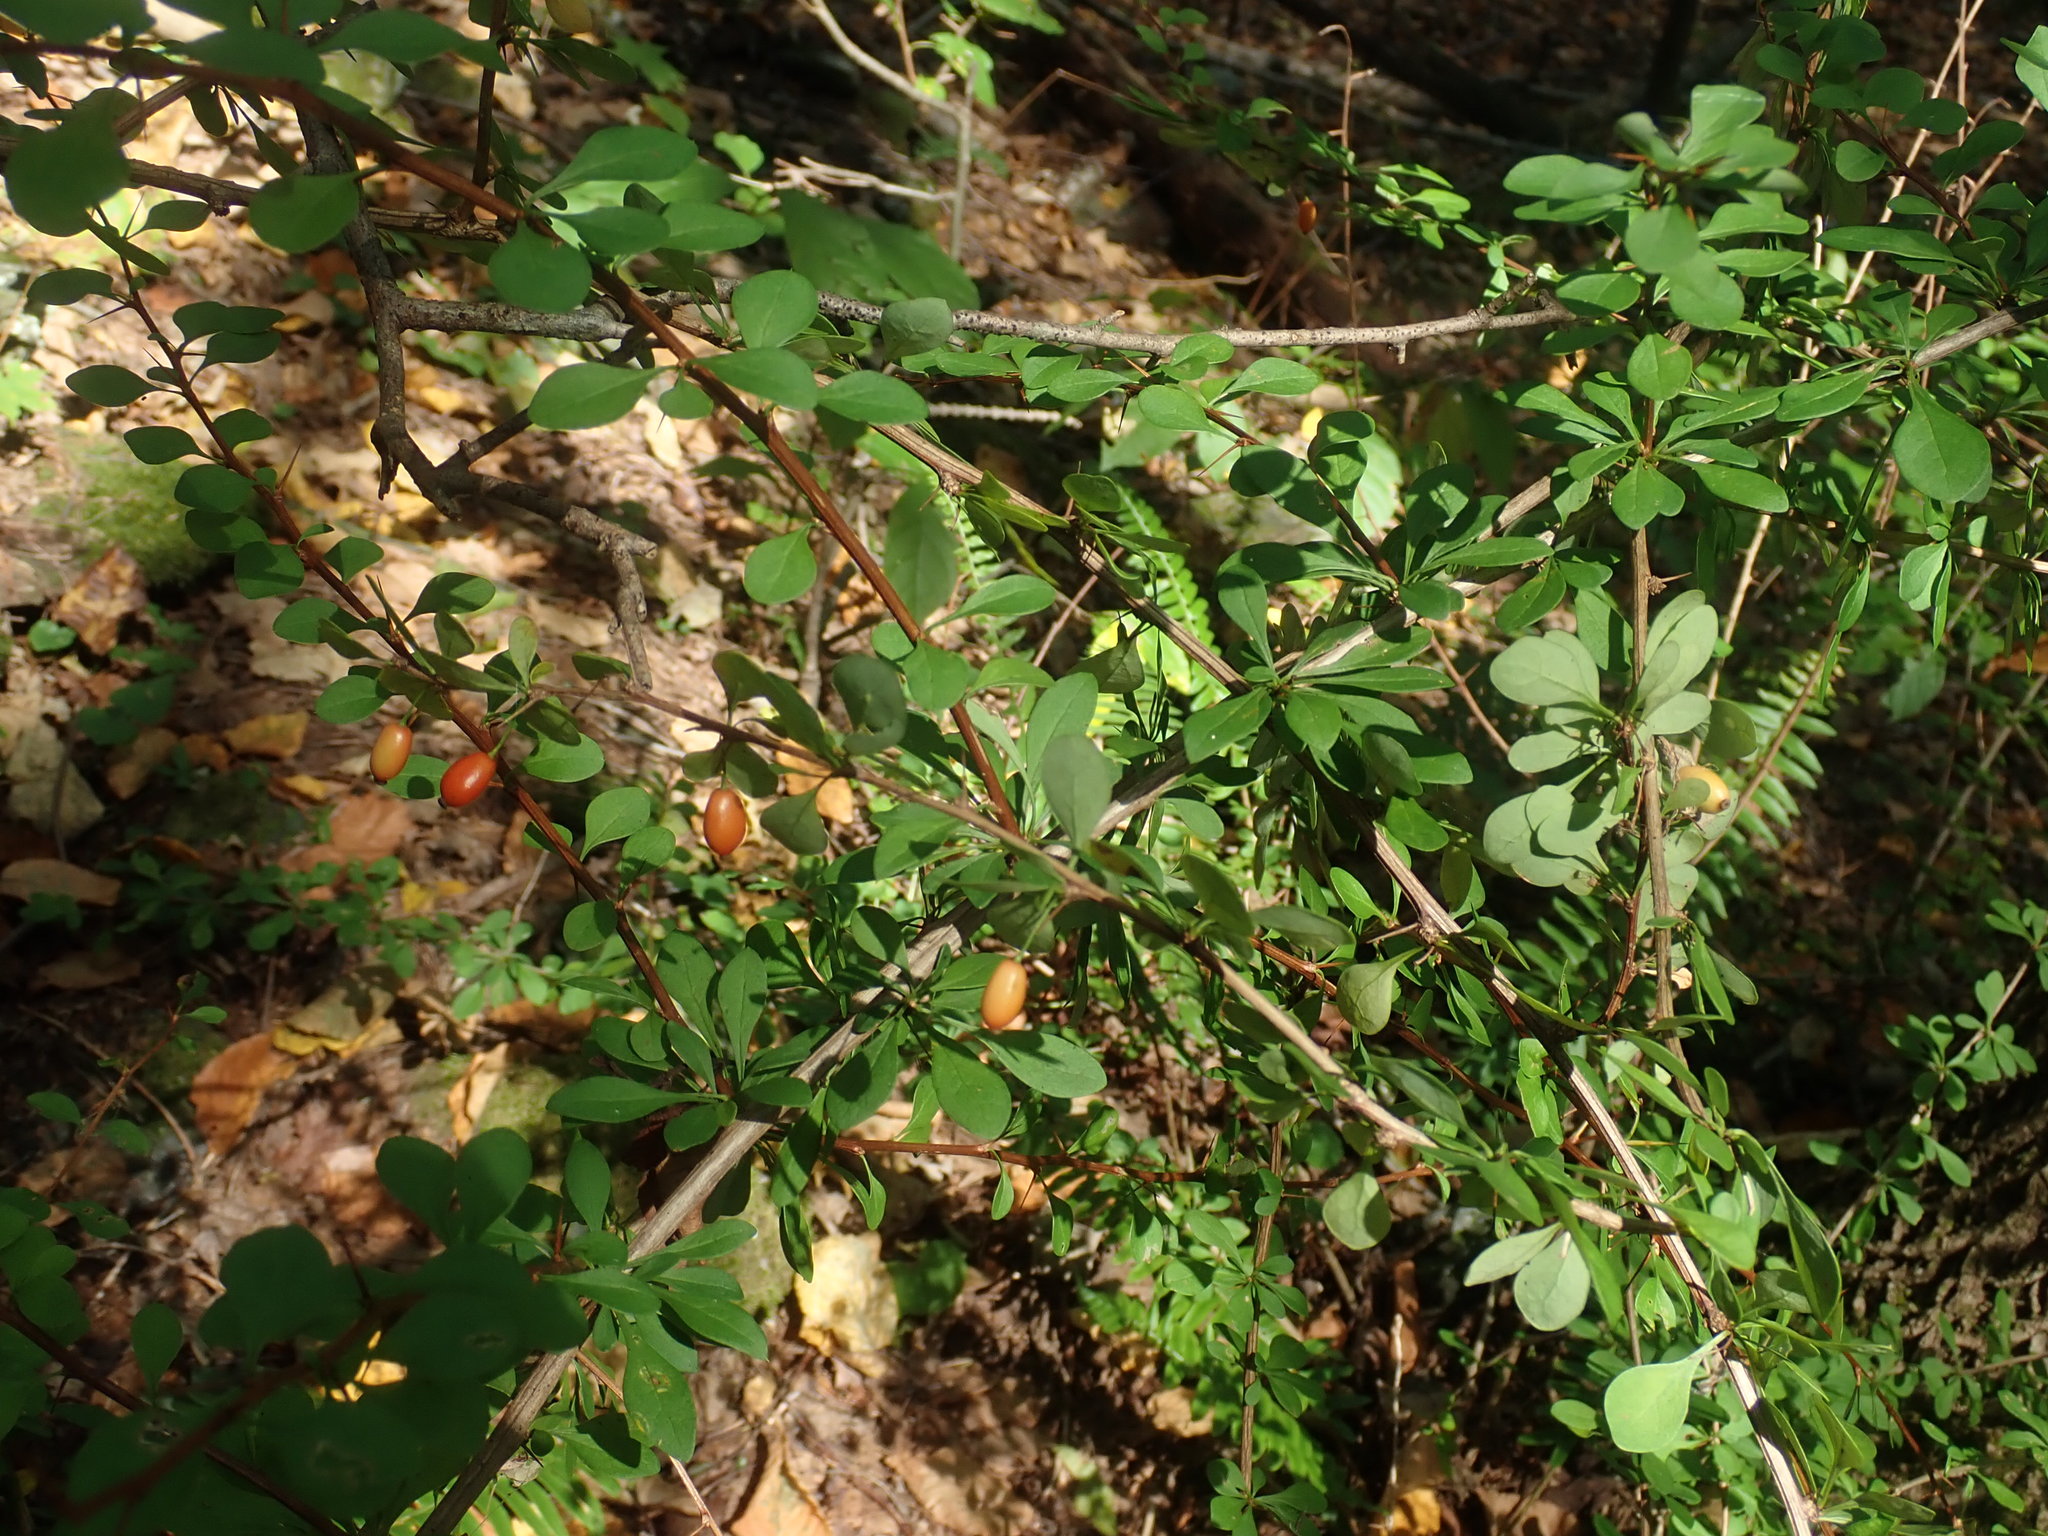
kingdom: Plantae
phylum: Tracheophyta
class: Magnoliopsida
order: Ranunculales
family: Berberidaceae
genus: Berberis
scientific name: Berberis thunbergii
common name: Japanese barberry
